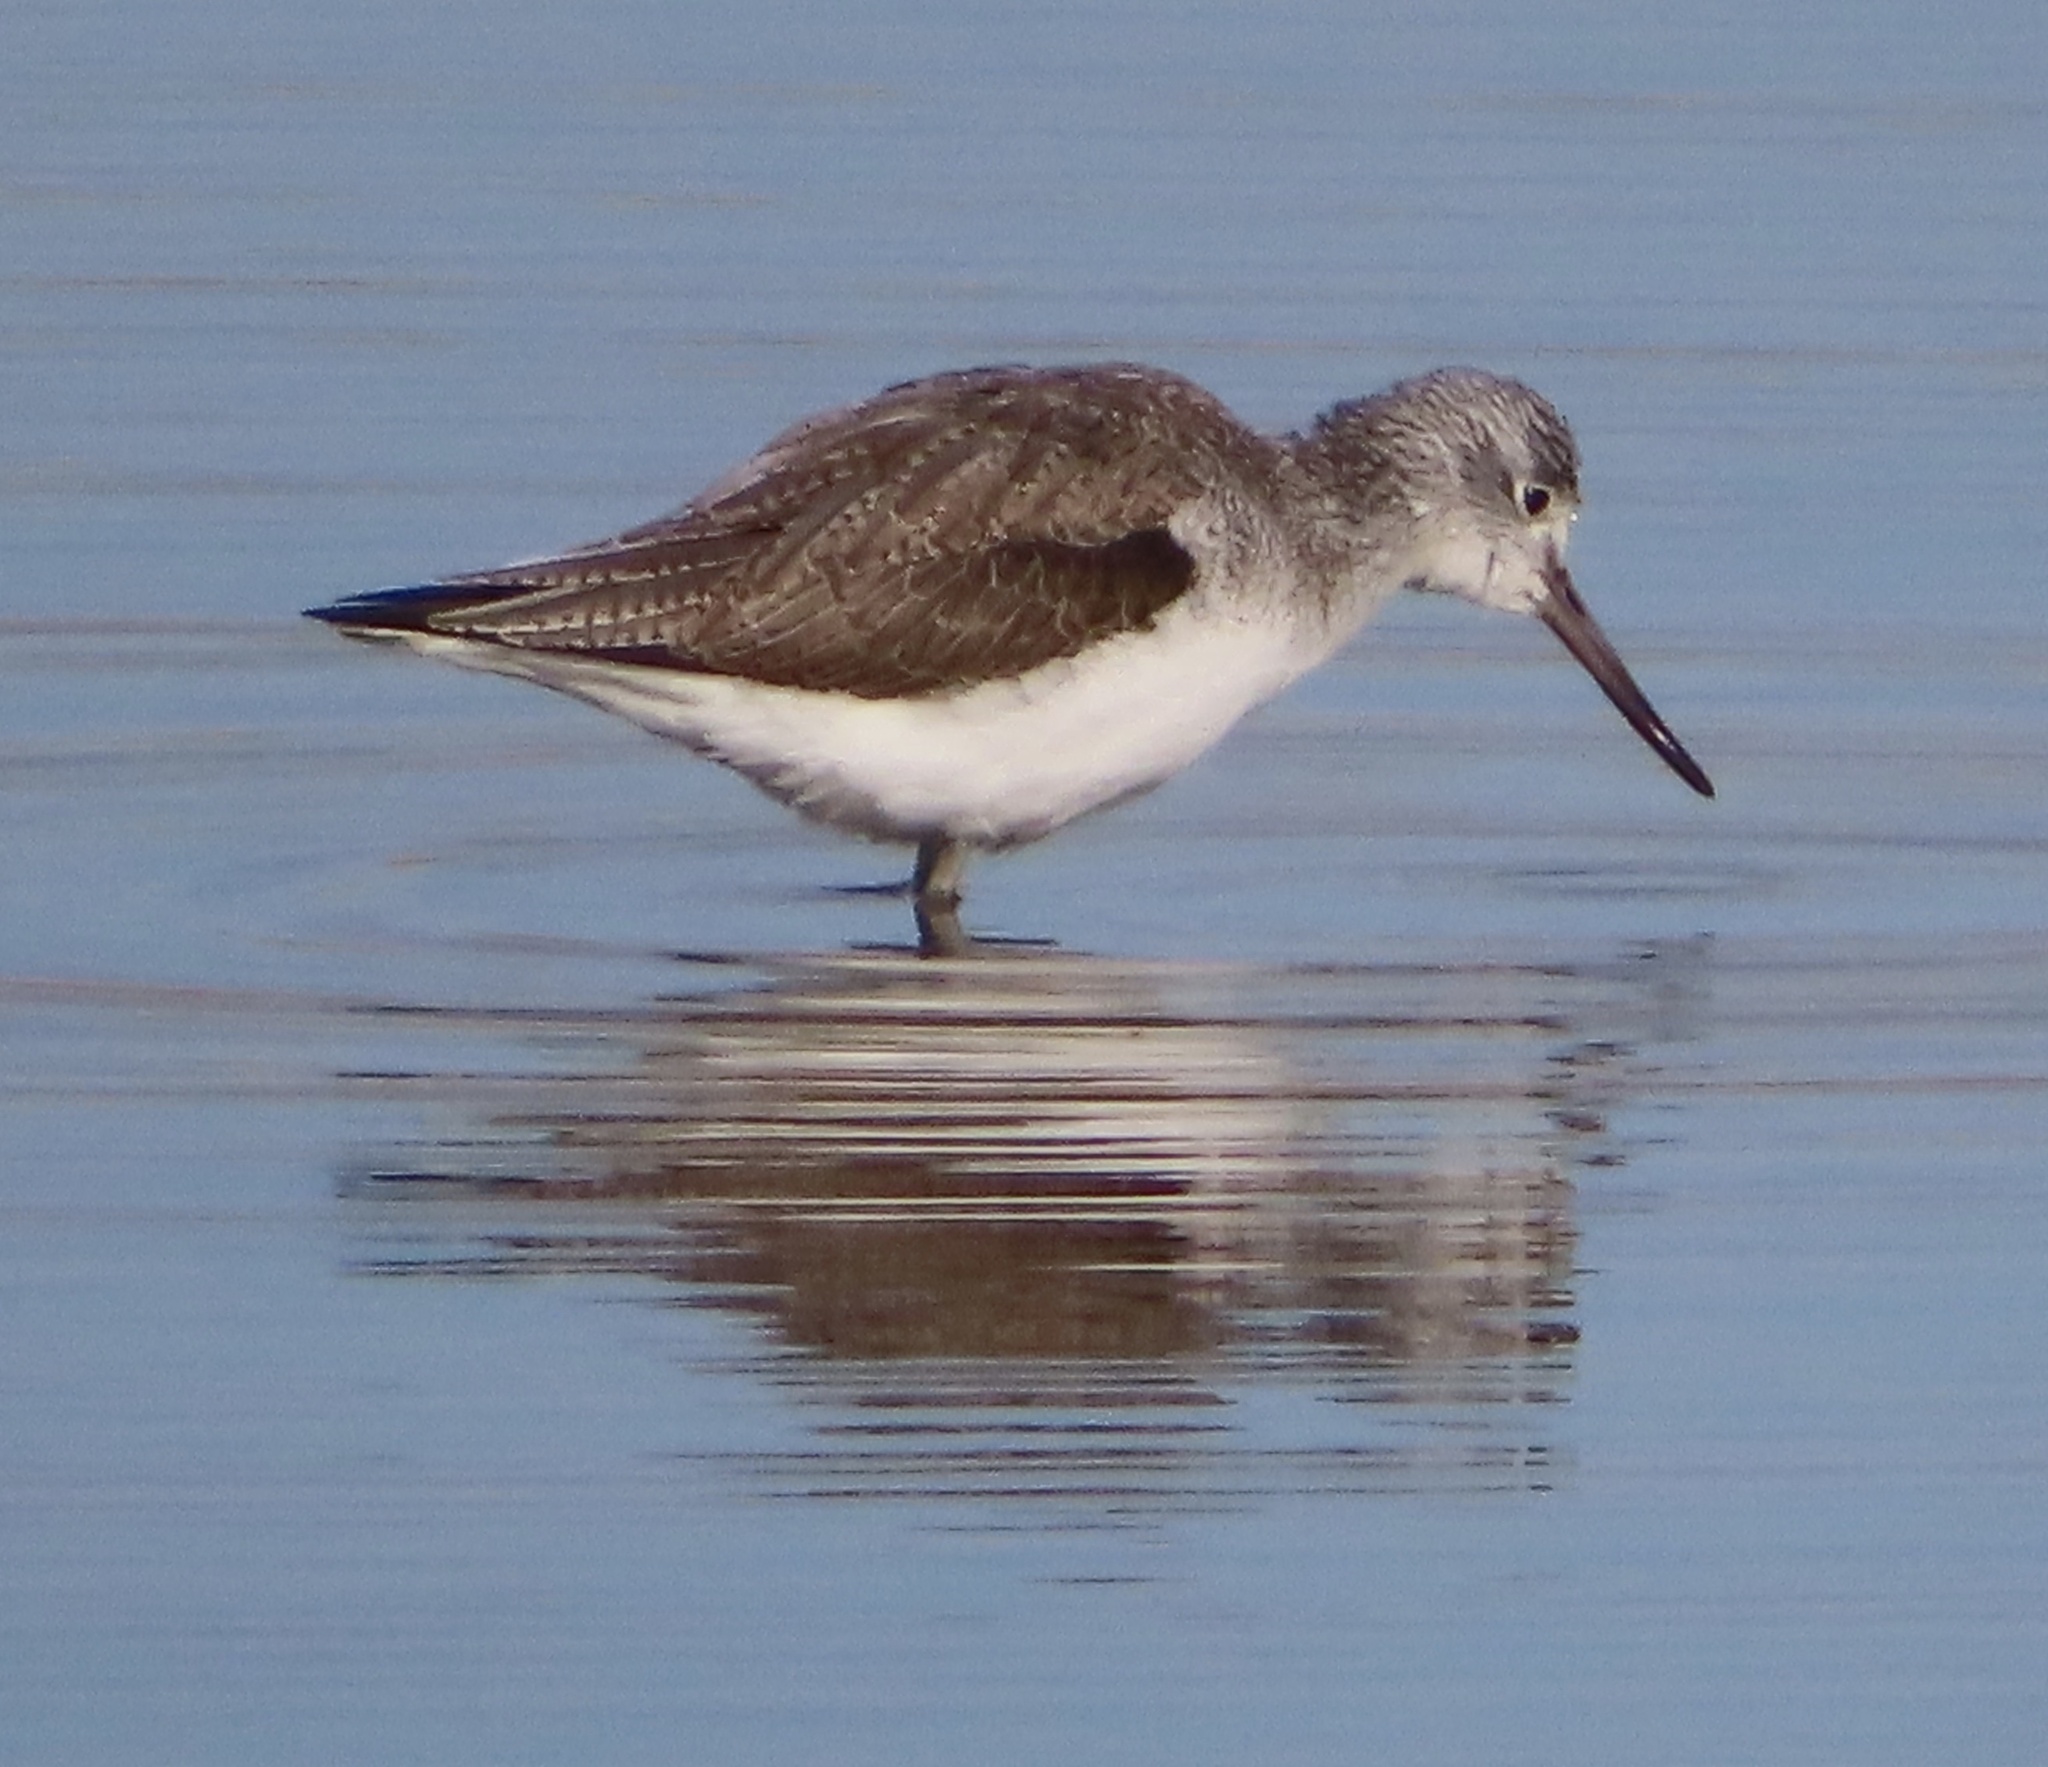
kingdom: Animalia
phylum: Chordata
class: Aves
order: Charadriiformes
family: Scolopacidae
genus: Tringa
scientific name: Tringa nebularia
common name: Common greenshank
